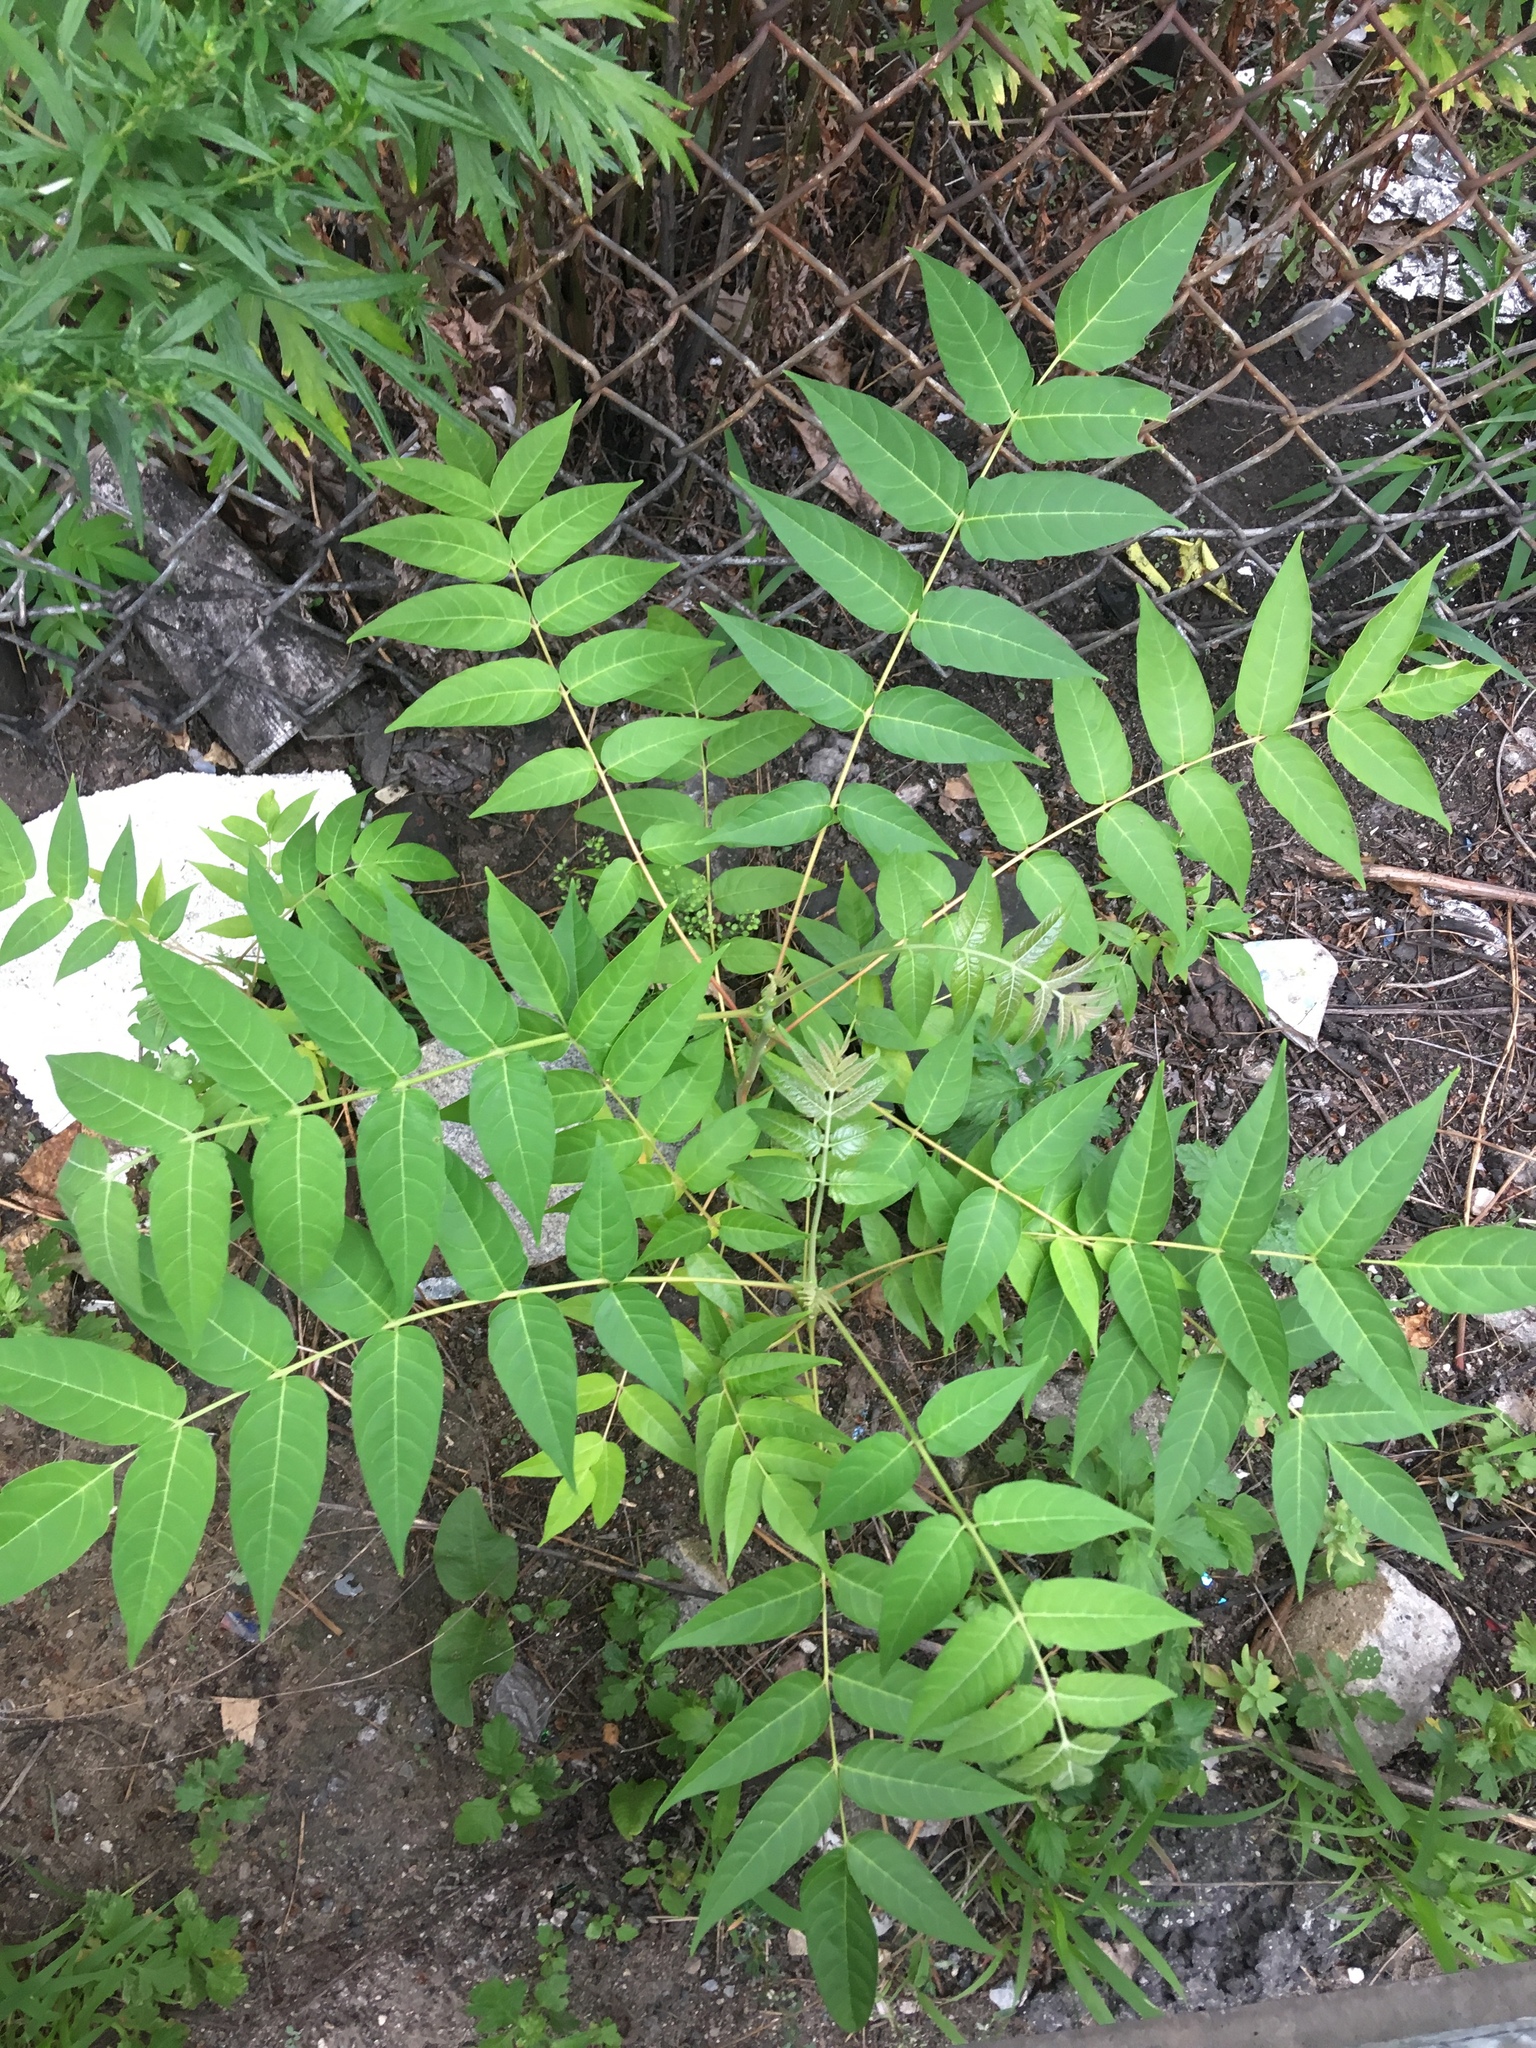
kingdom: Plantae
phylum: Tracheophyta
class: Magnoliopsida
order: Sapindales
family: Simaroubaceae
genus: Ailanthus
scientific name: Ailanthus altissima
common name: Tree-of-heaven
